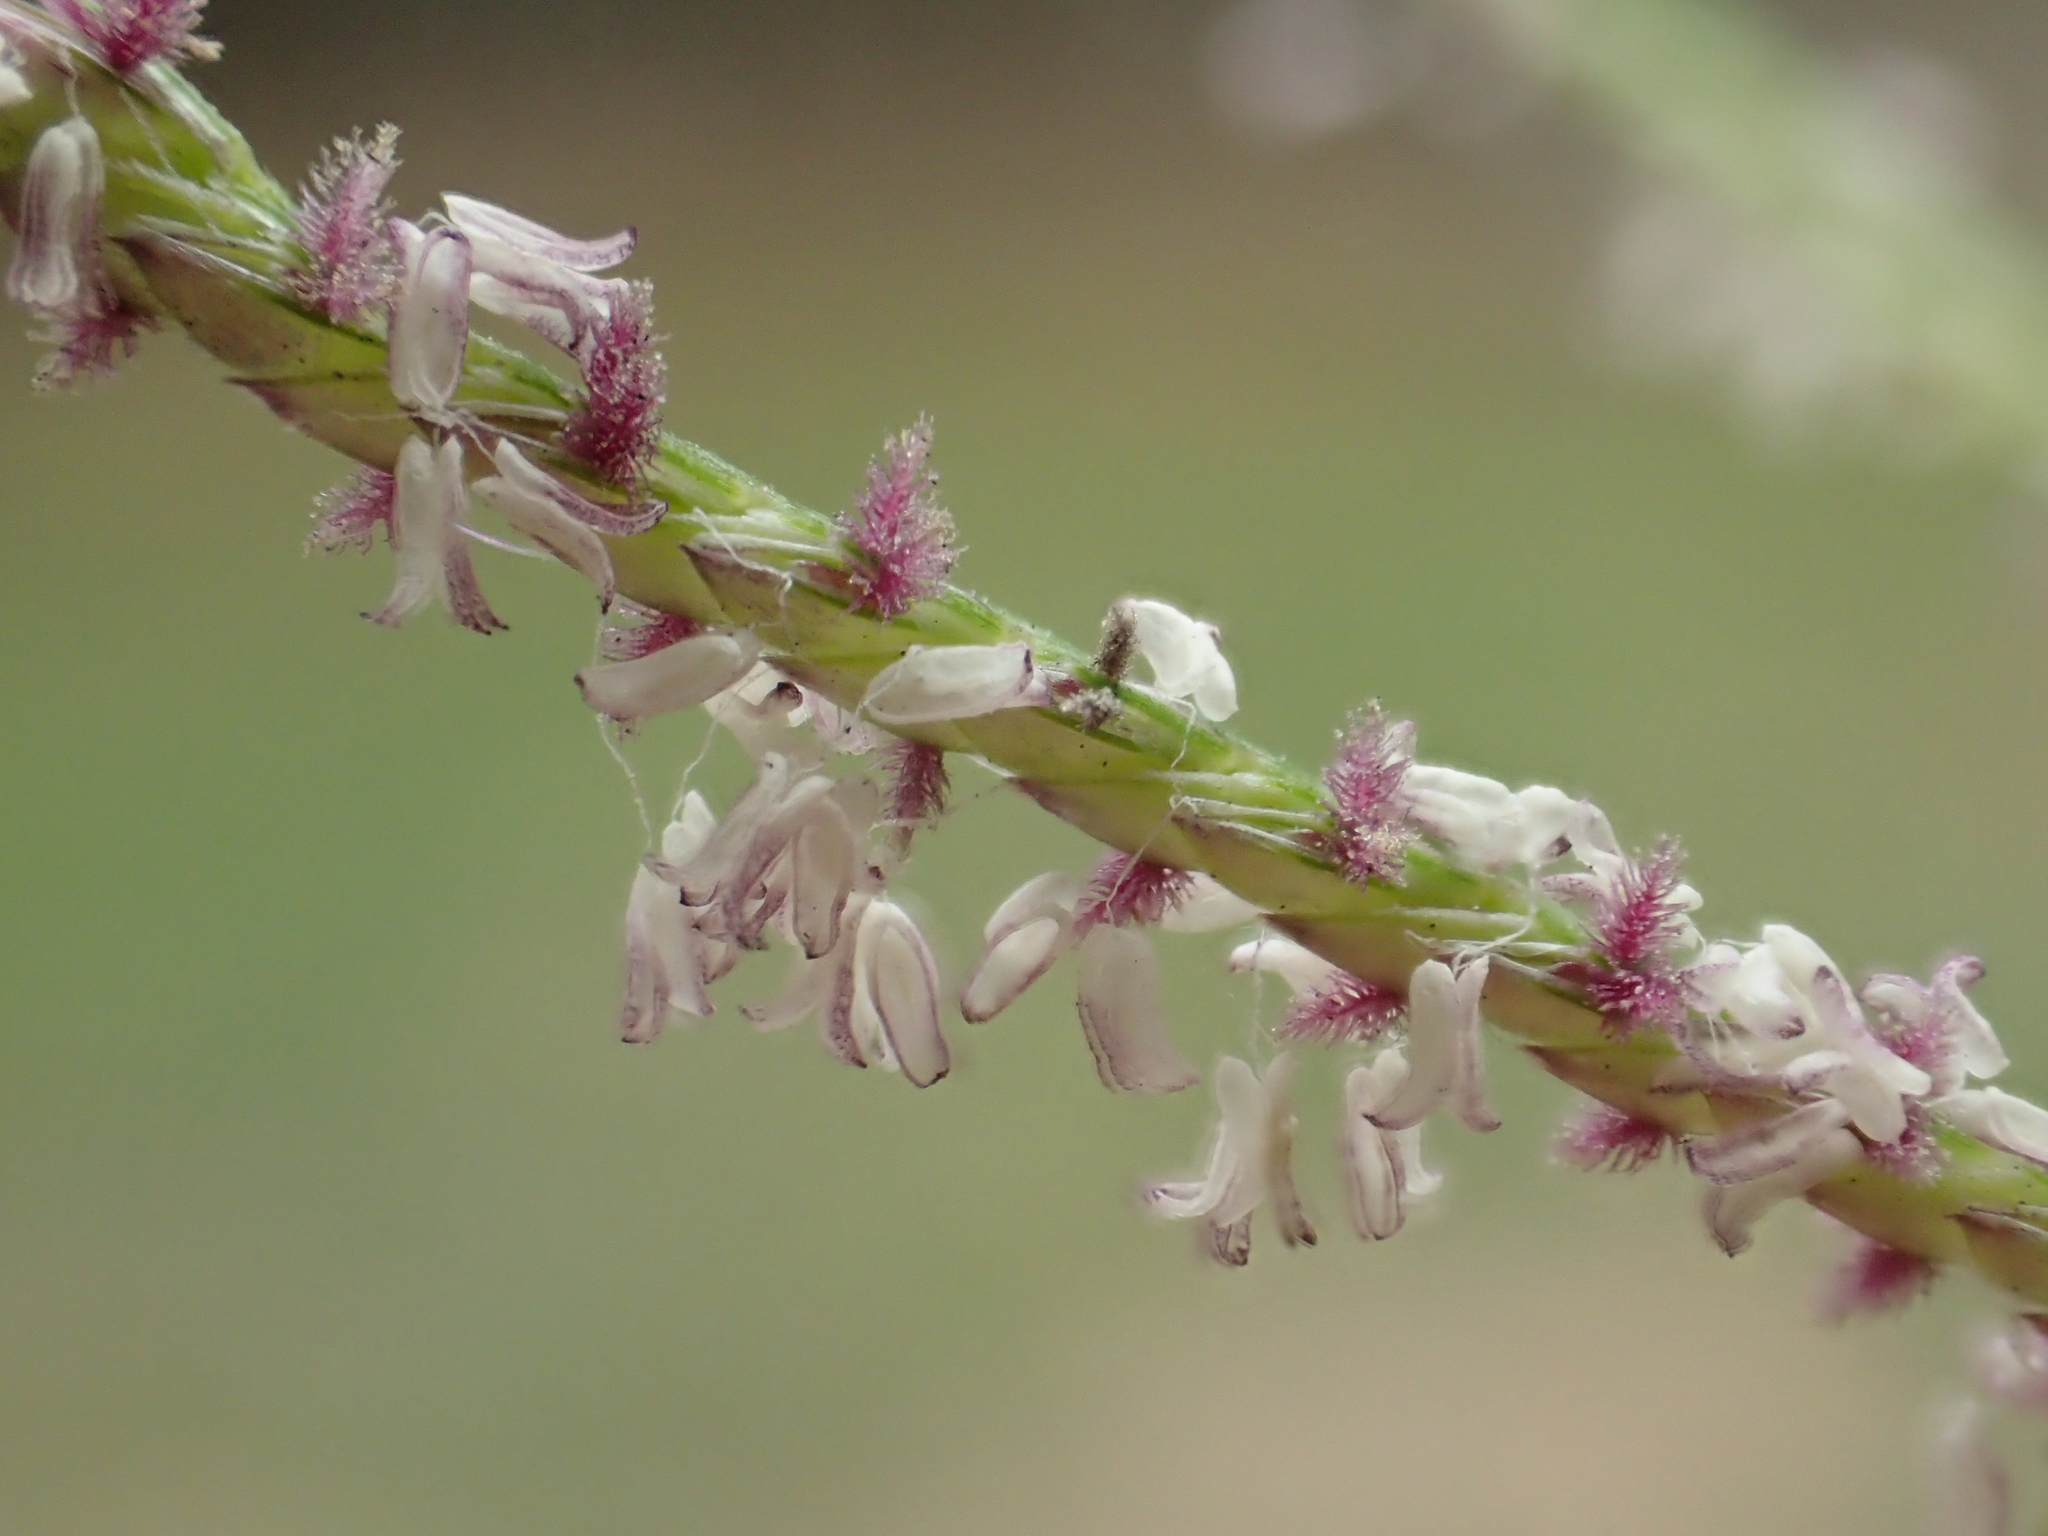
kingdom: Plantae
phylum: Tracheophyta
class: Liliopsida
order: Poales
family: Poaceae
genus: Cynodon
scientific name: Cynodon dactylon
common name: Bermuda grass
